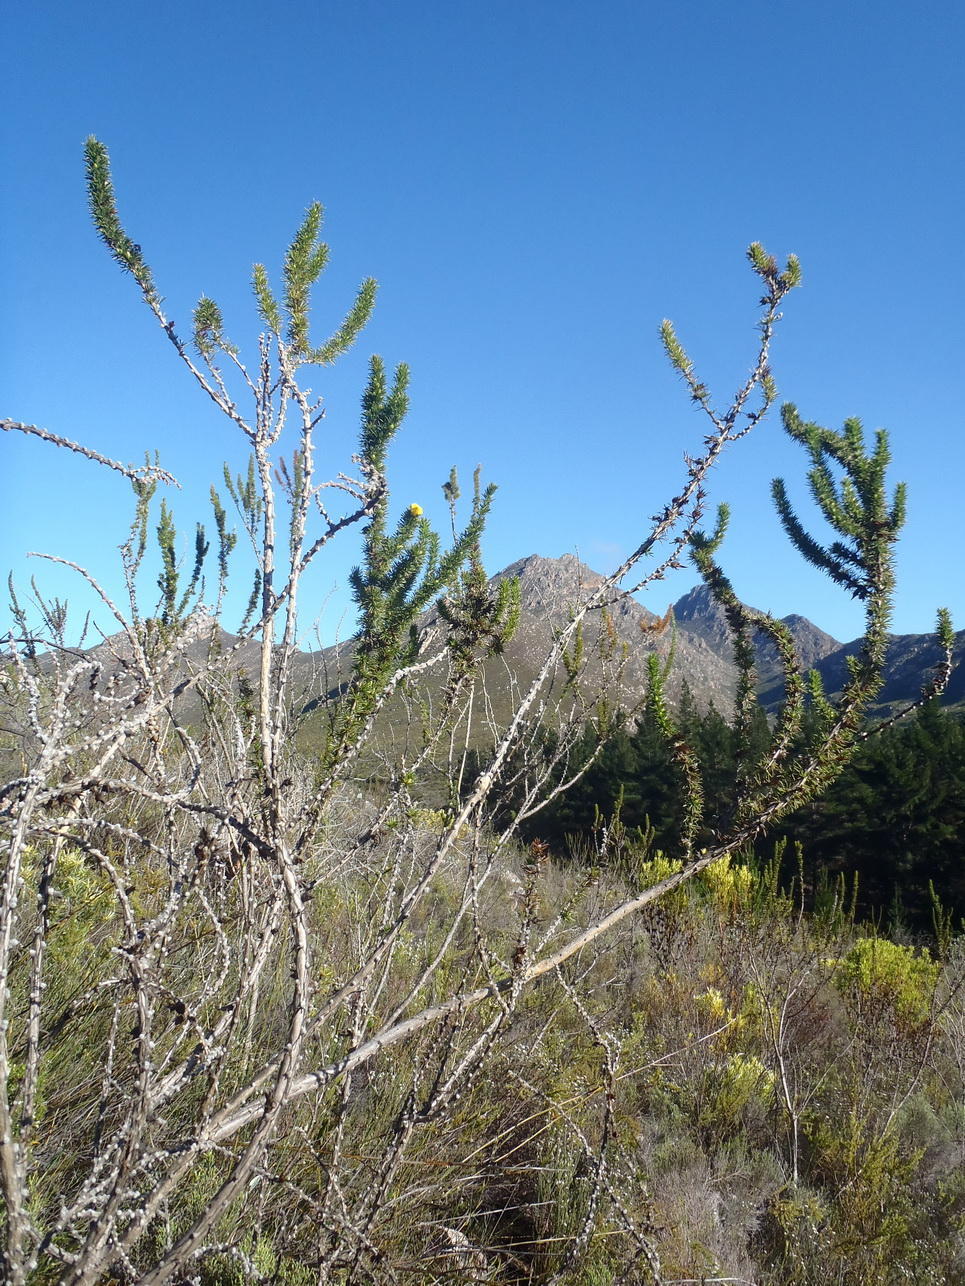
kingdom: Plantae
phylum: Tracheophyta
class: Magnoliopsida
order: Fabales
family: Fabaceae
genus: Aspalathus
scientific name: Aspalathus sceptrumaureum
